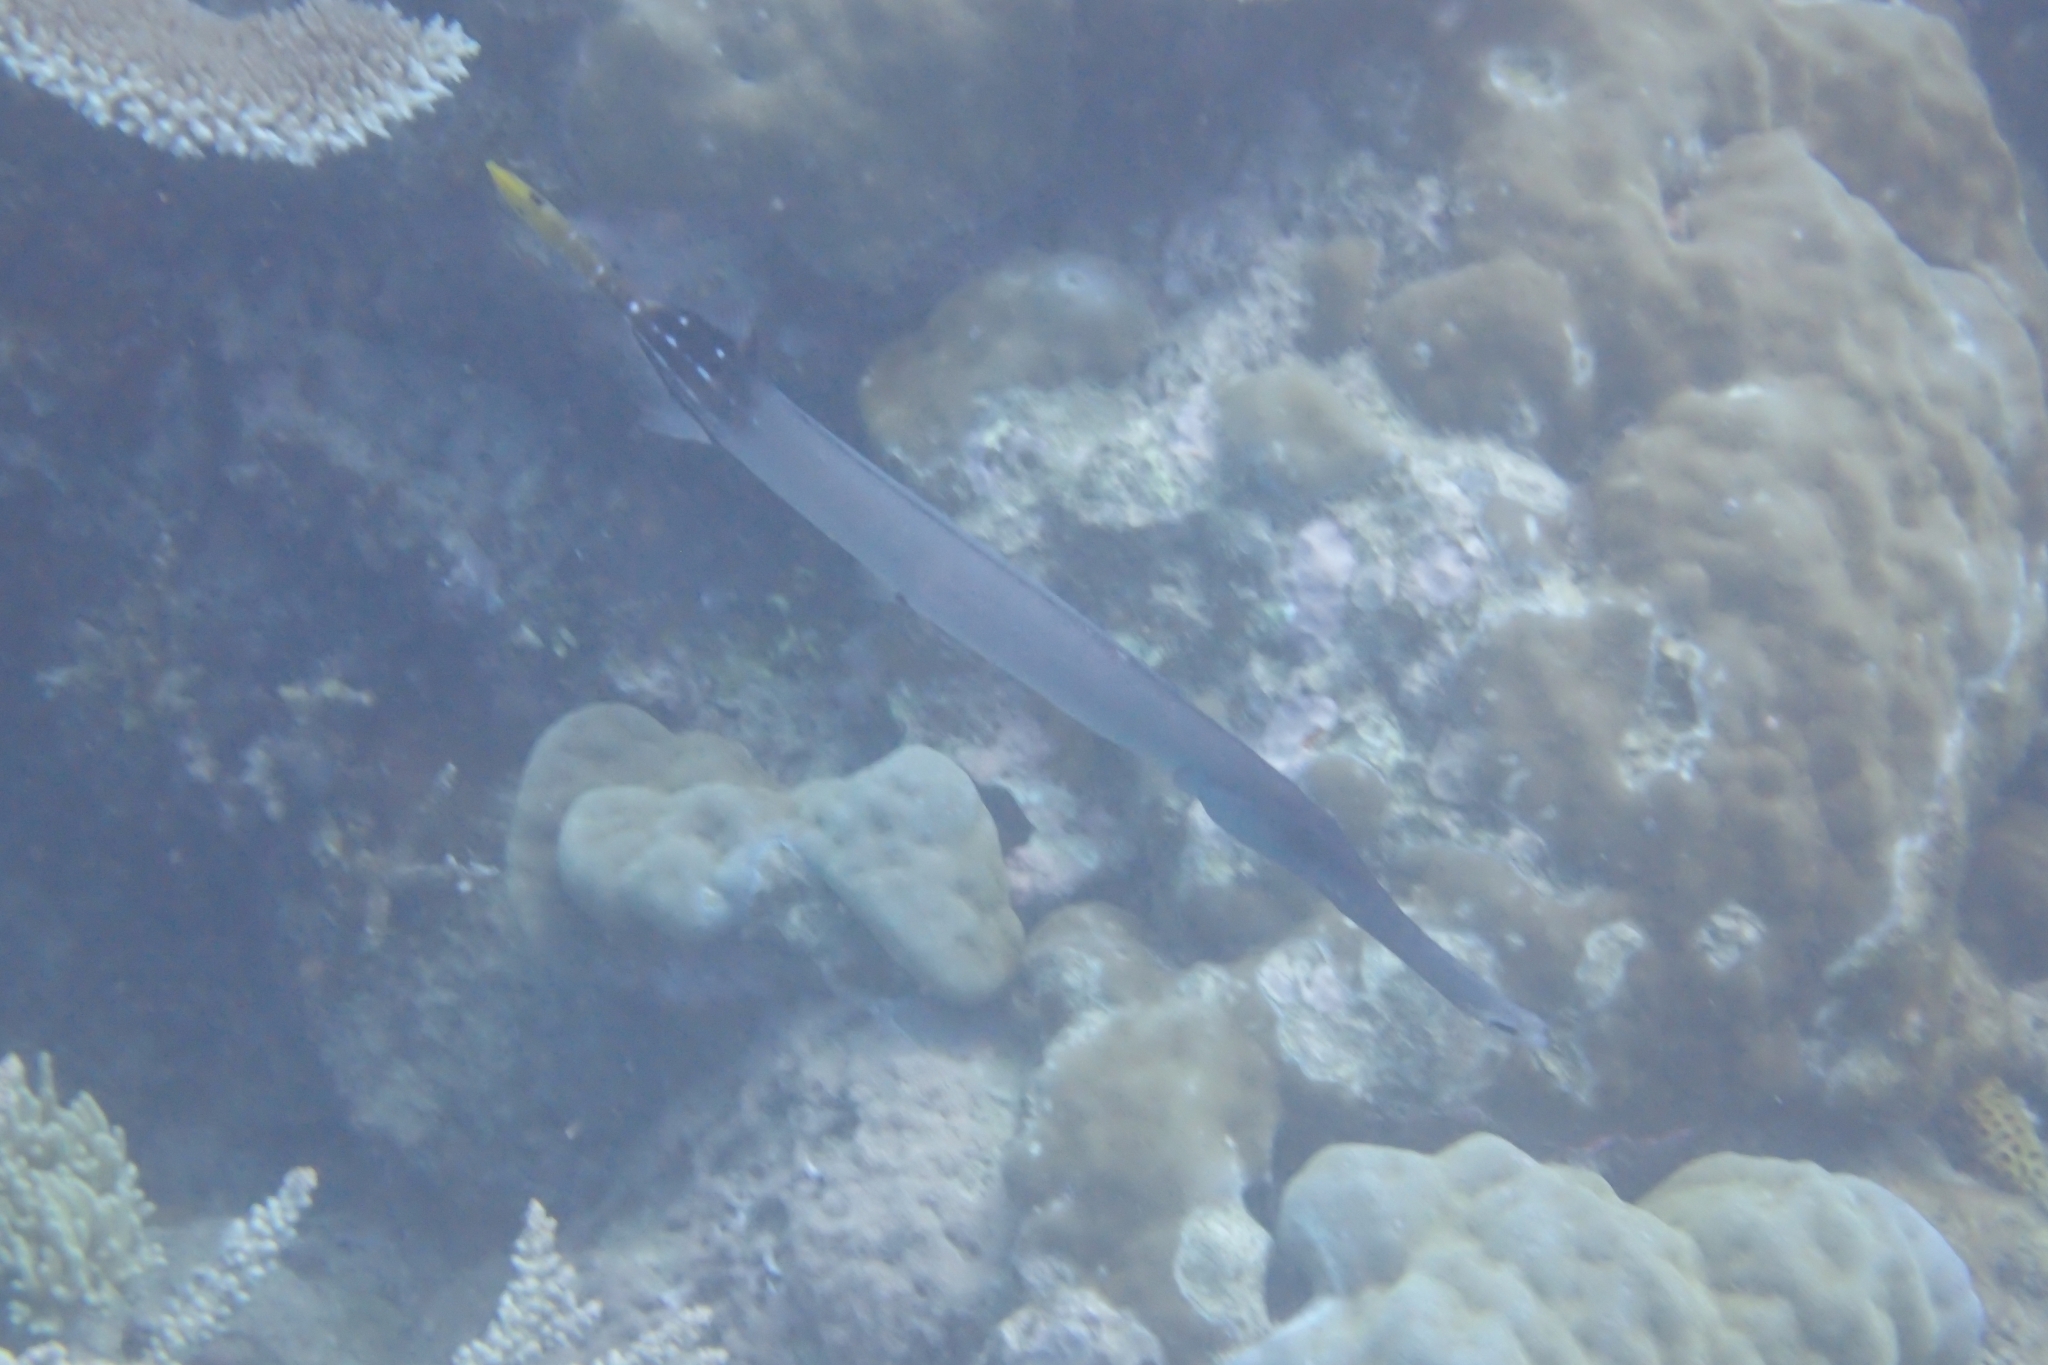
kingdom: Animalia
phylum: Chordata
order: Syngnathiformes
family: Aulostomidae
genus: Aulostomus
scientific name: Aulostomus chinensis
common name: Chinese trumpetfish
